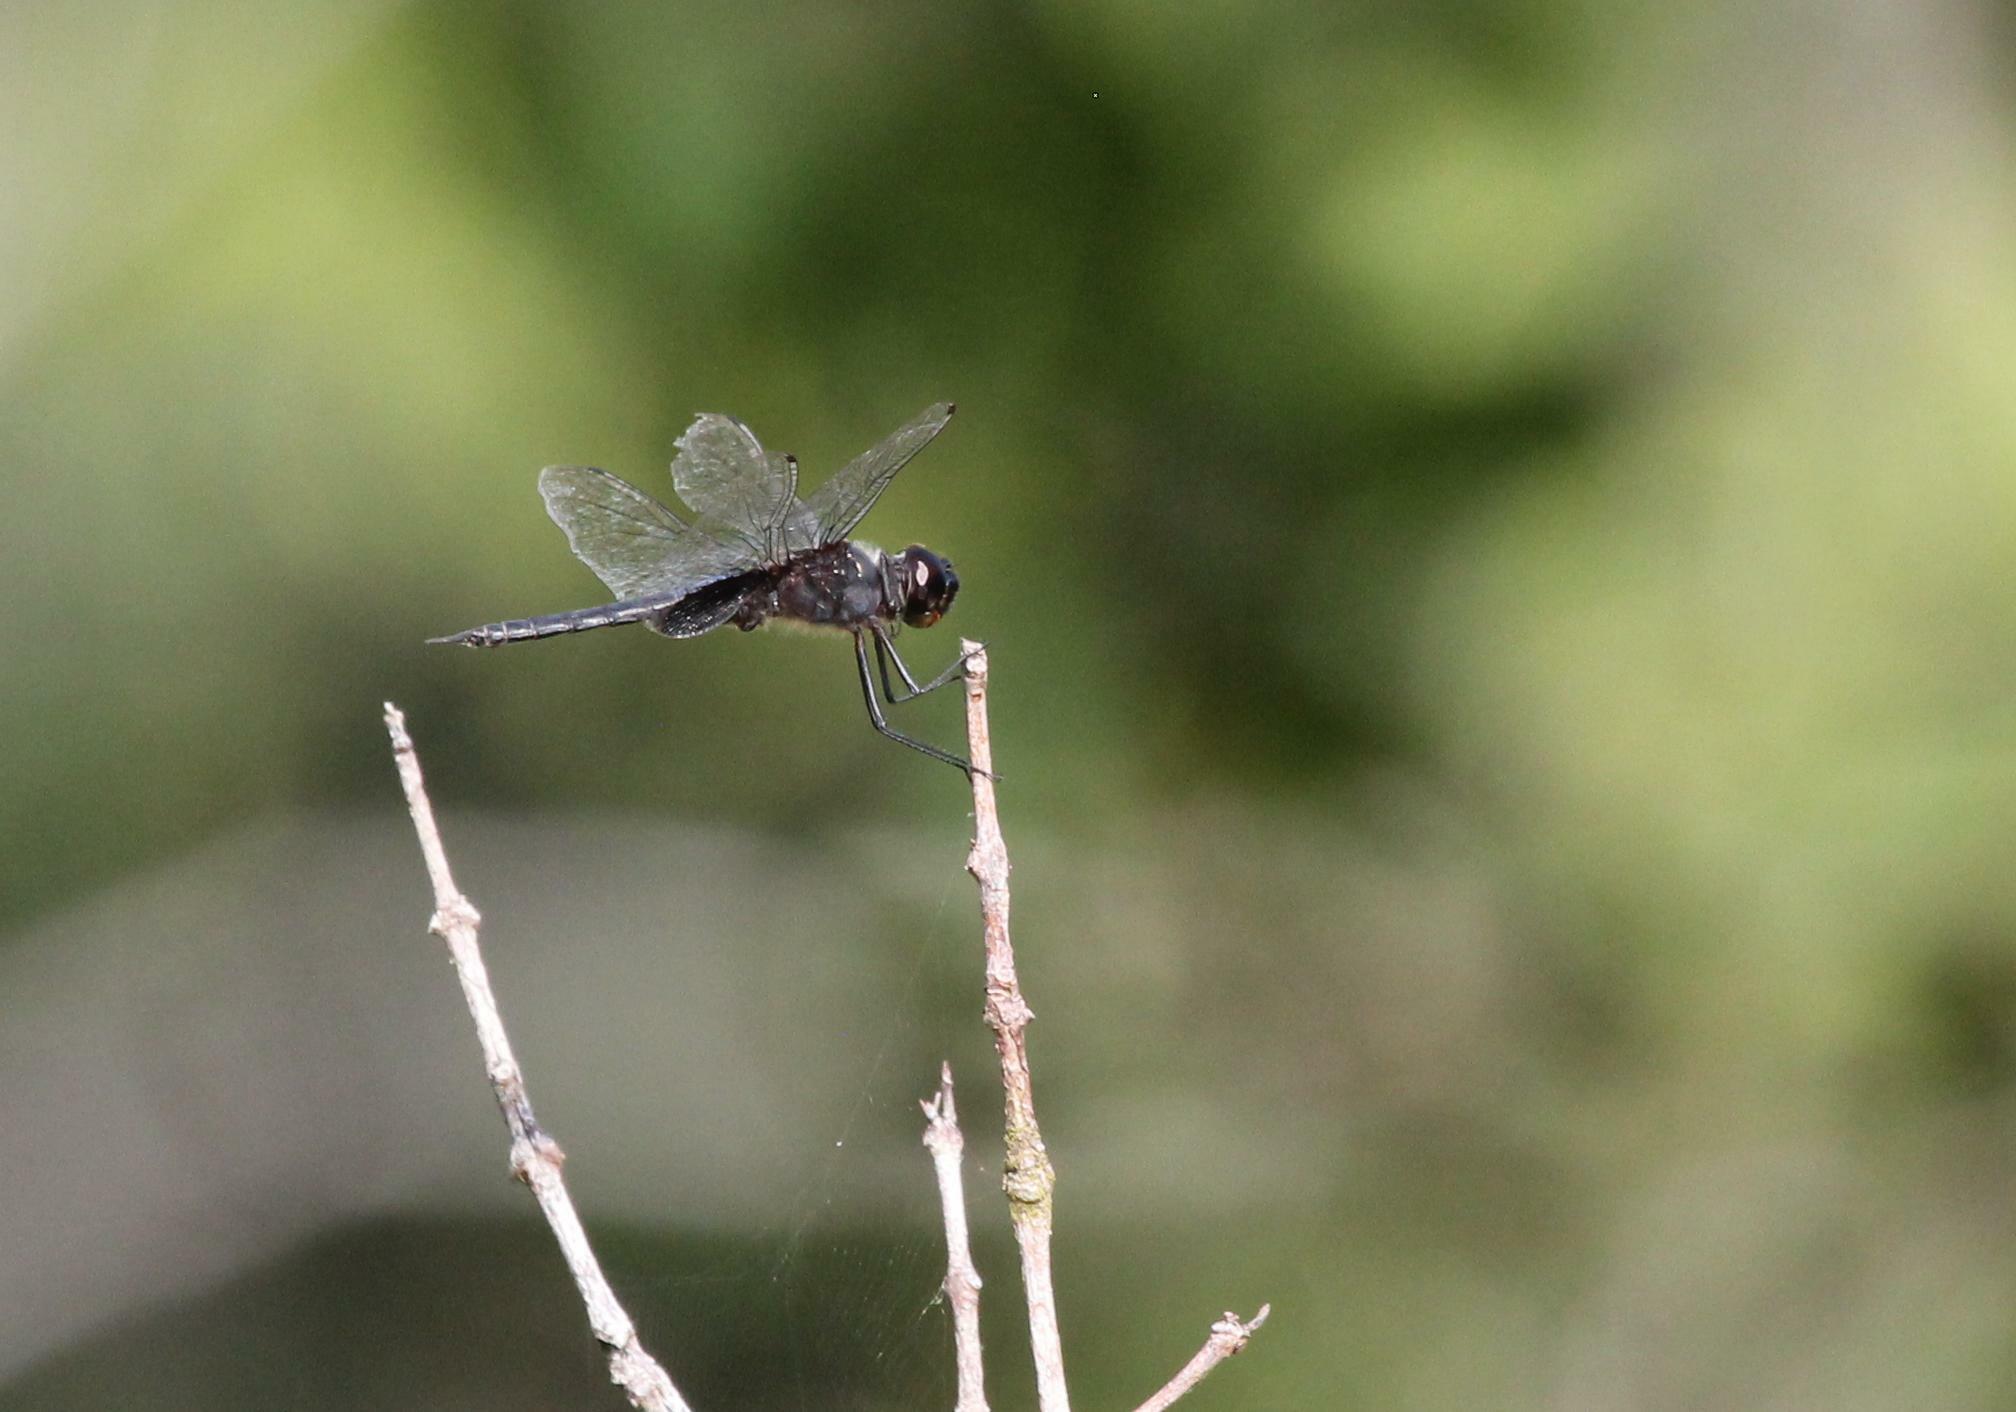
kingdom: Animalia
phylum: Arthropoda
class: Insecta
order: Odonata
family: Libellulidae
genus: Tramea
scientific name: Tramea binotata
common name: Sooty saddlebags
